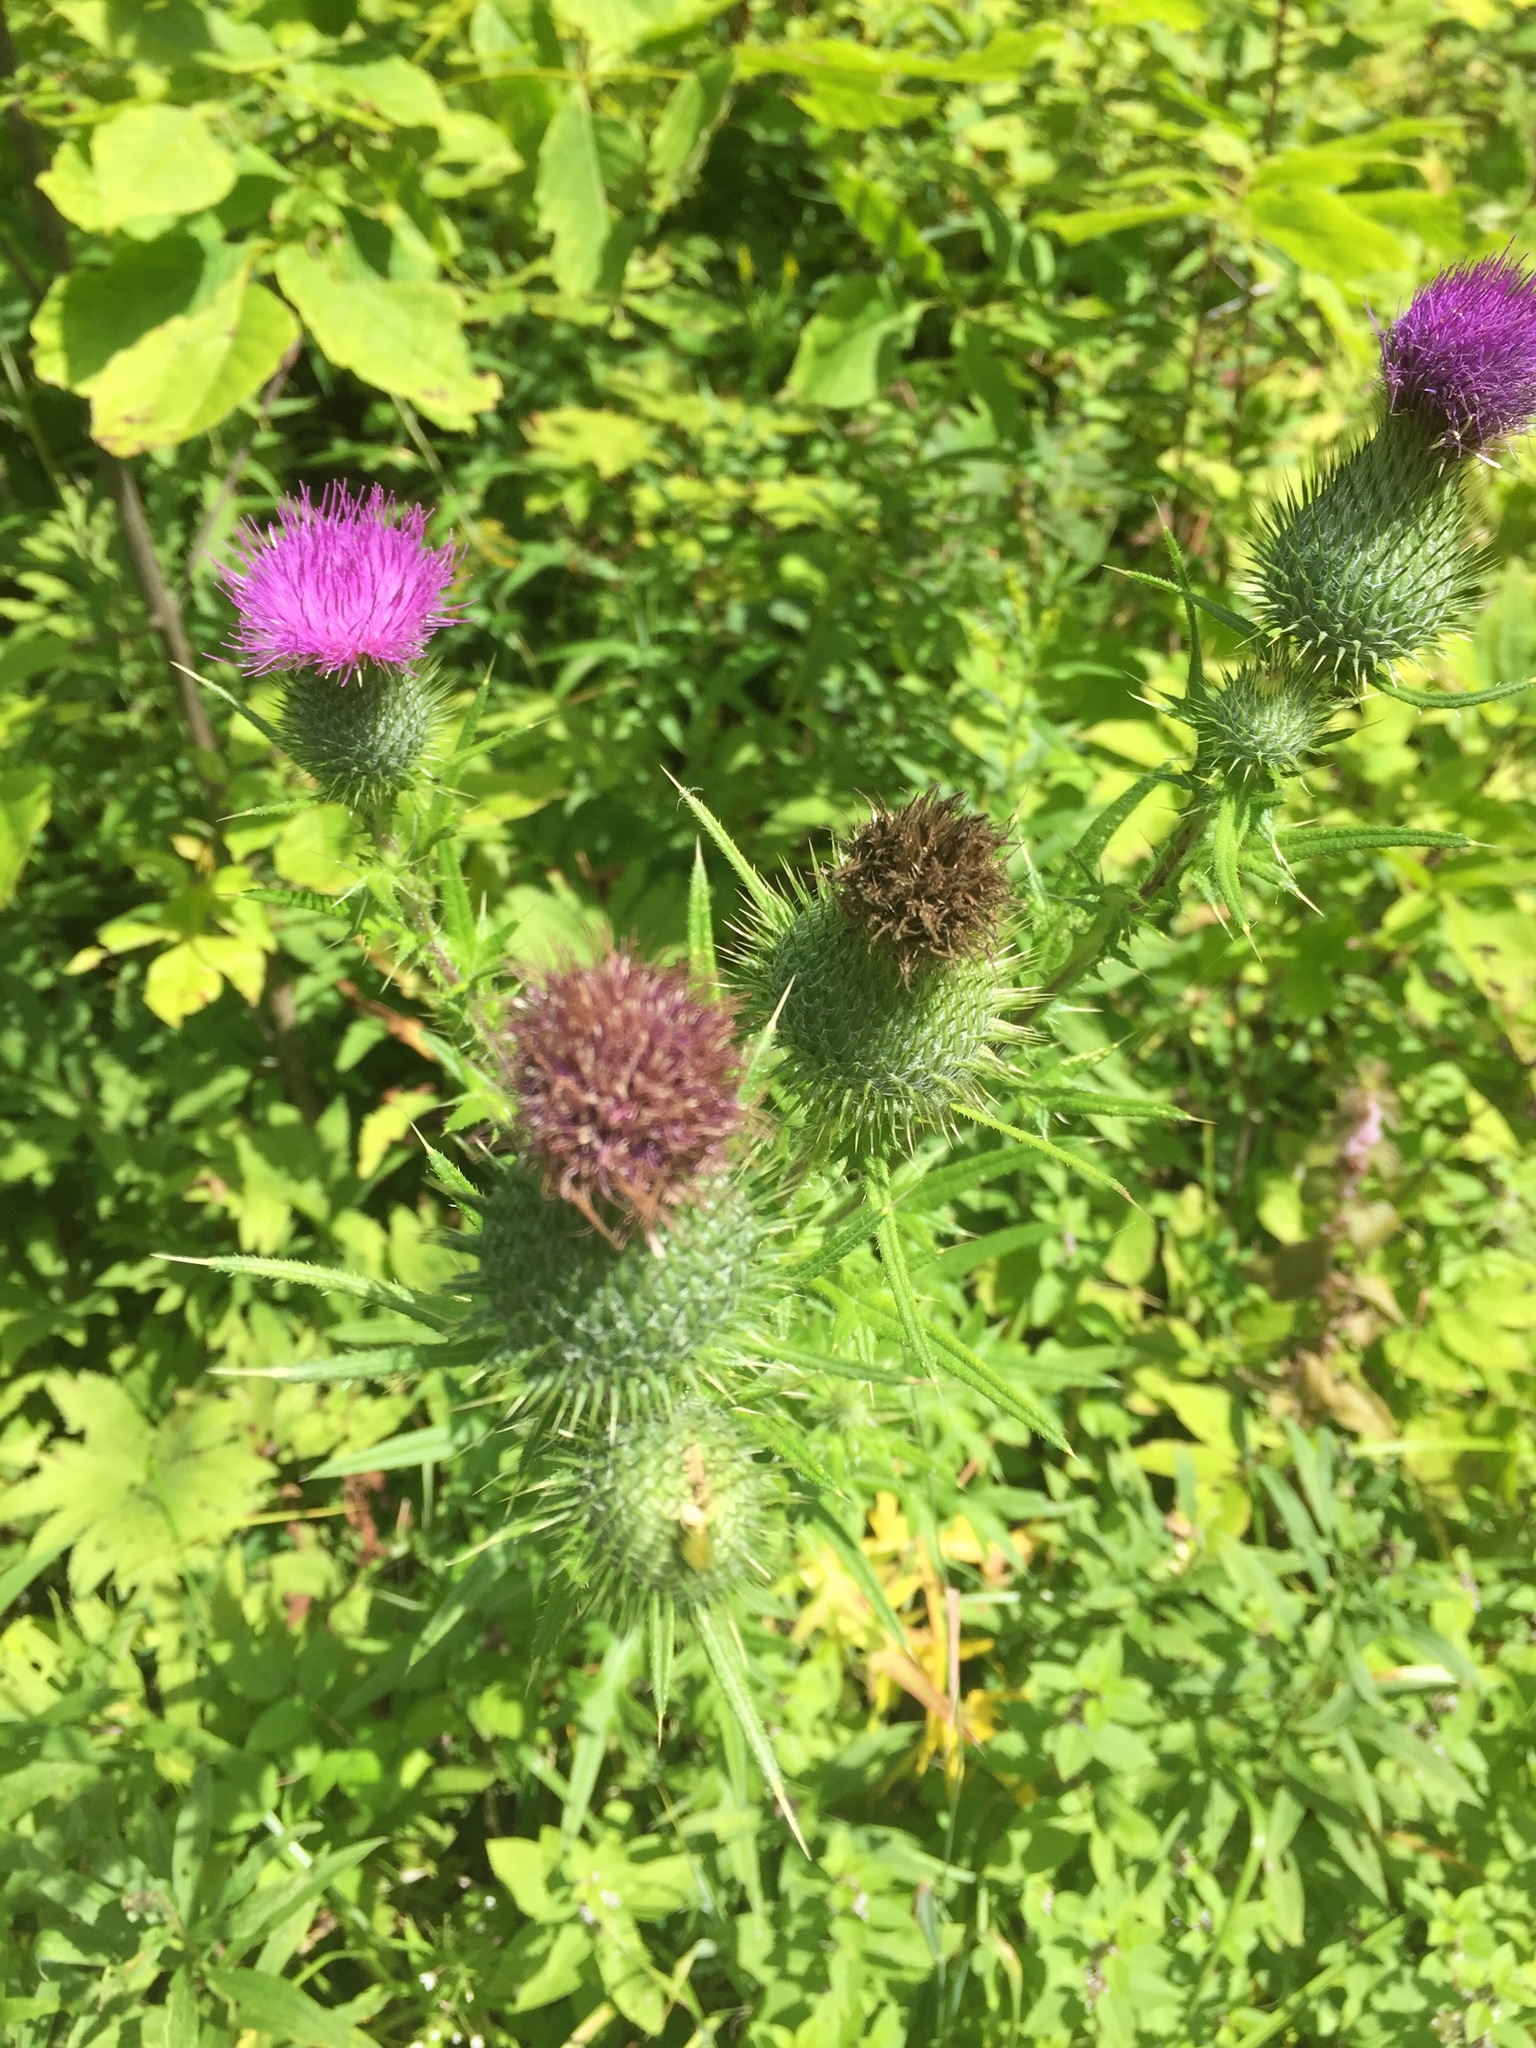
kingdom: Plantae
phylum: Tracheophyta
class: Magnoliopsida
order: Asterales
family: Asteraceae
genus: Cirsium
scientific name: Cirsium vulgare
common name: Bull thistle
